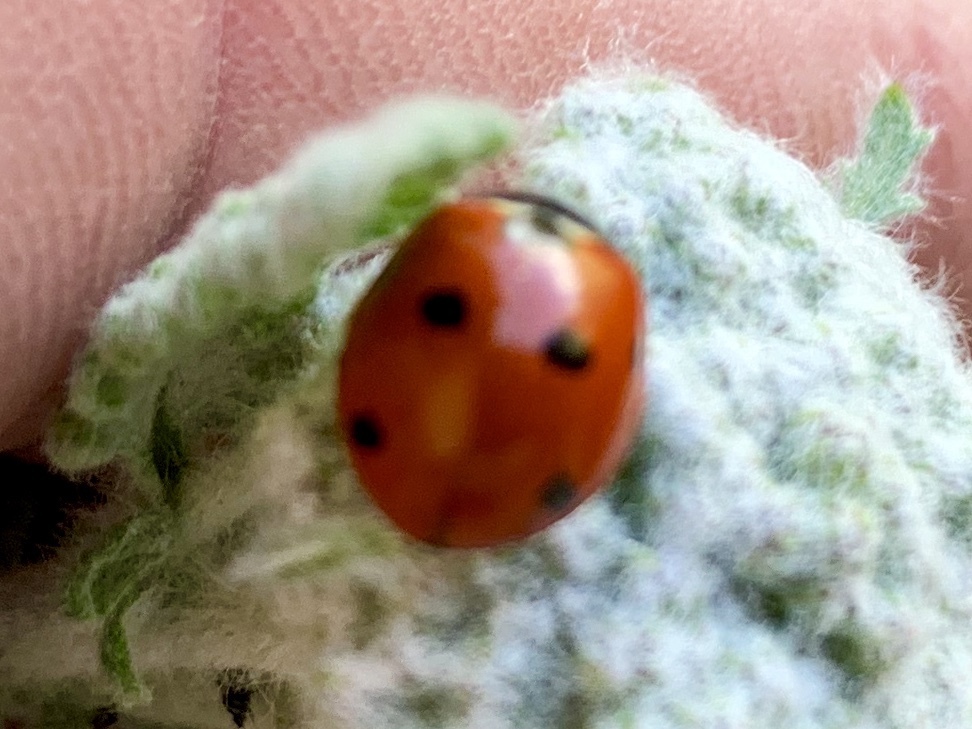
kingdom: Animalia
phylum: Arthropoda
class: Insecta
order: Coleoptera
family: Coccinellidae
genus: Coccinella
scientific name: Coccinella septempunctata
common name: Sevenspotted lady beetle
